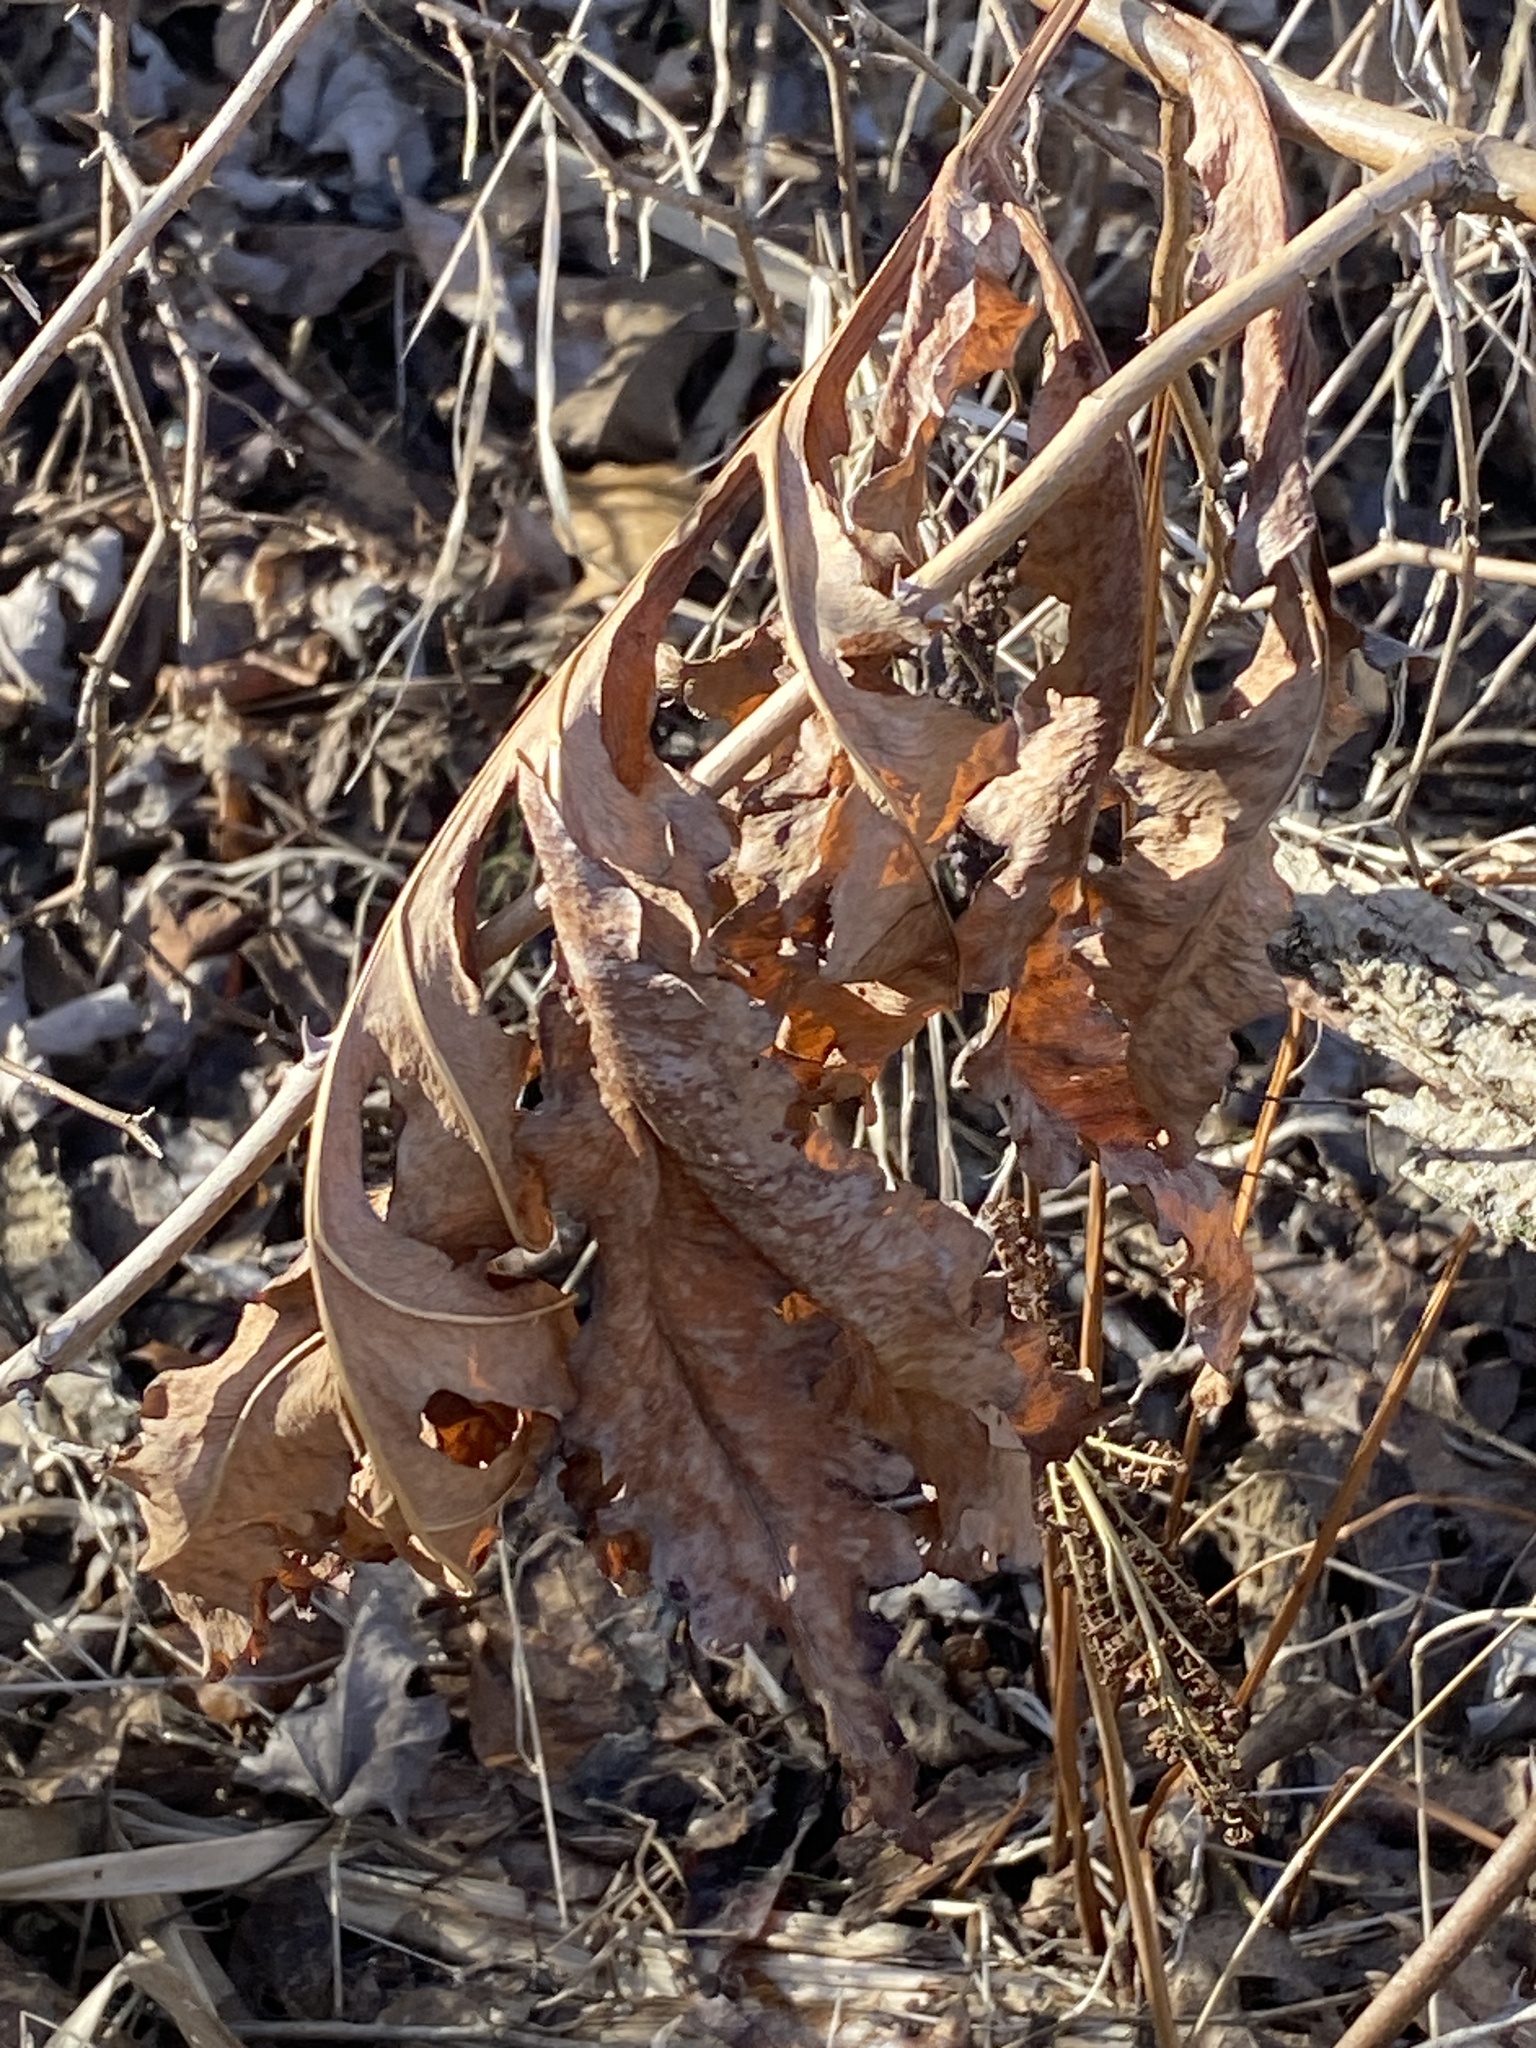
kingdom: Plantae
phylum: Tracheophyta
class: Polypodiopsida
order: Polypodiales
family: Onocleaceae
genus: Onoclea
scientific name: Onoclea sensibilis
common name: Sensitive fern
